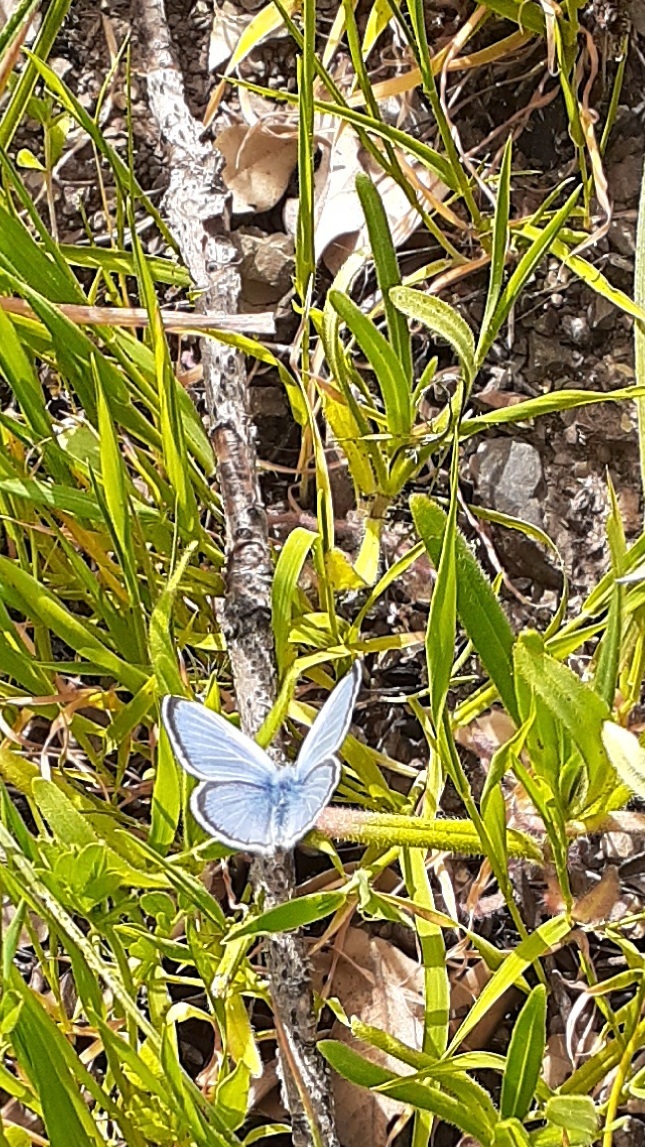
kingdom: Animalia
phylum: Arthropoda
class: Insecta
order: Lepidoptera
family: Lycaenidae
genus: Glaucopsyche
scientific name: Glaucopsyche lygdamus
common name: Silvery blue
